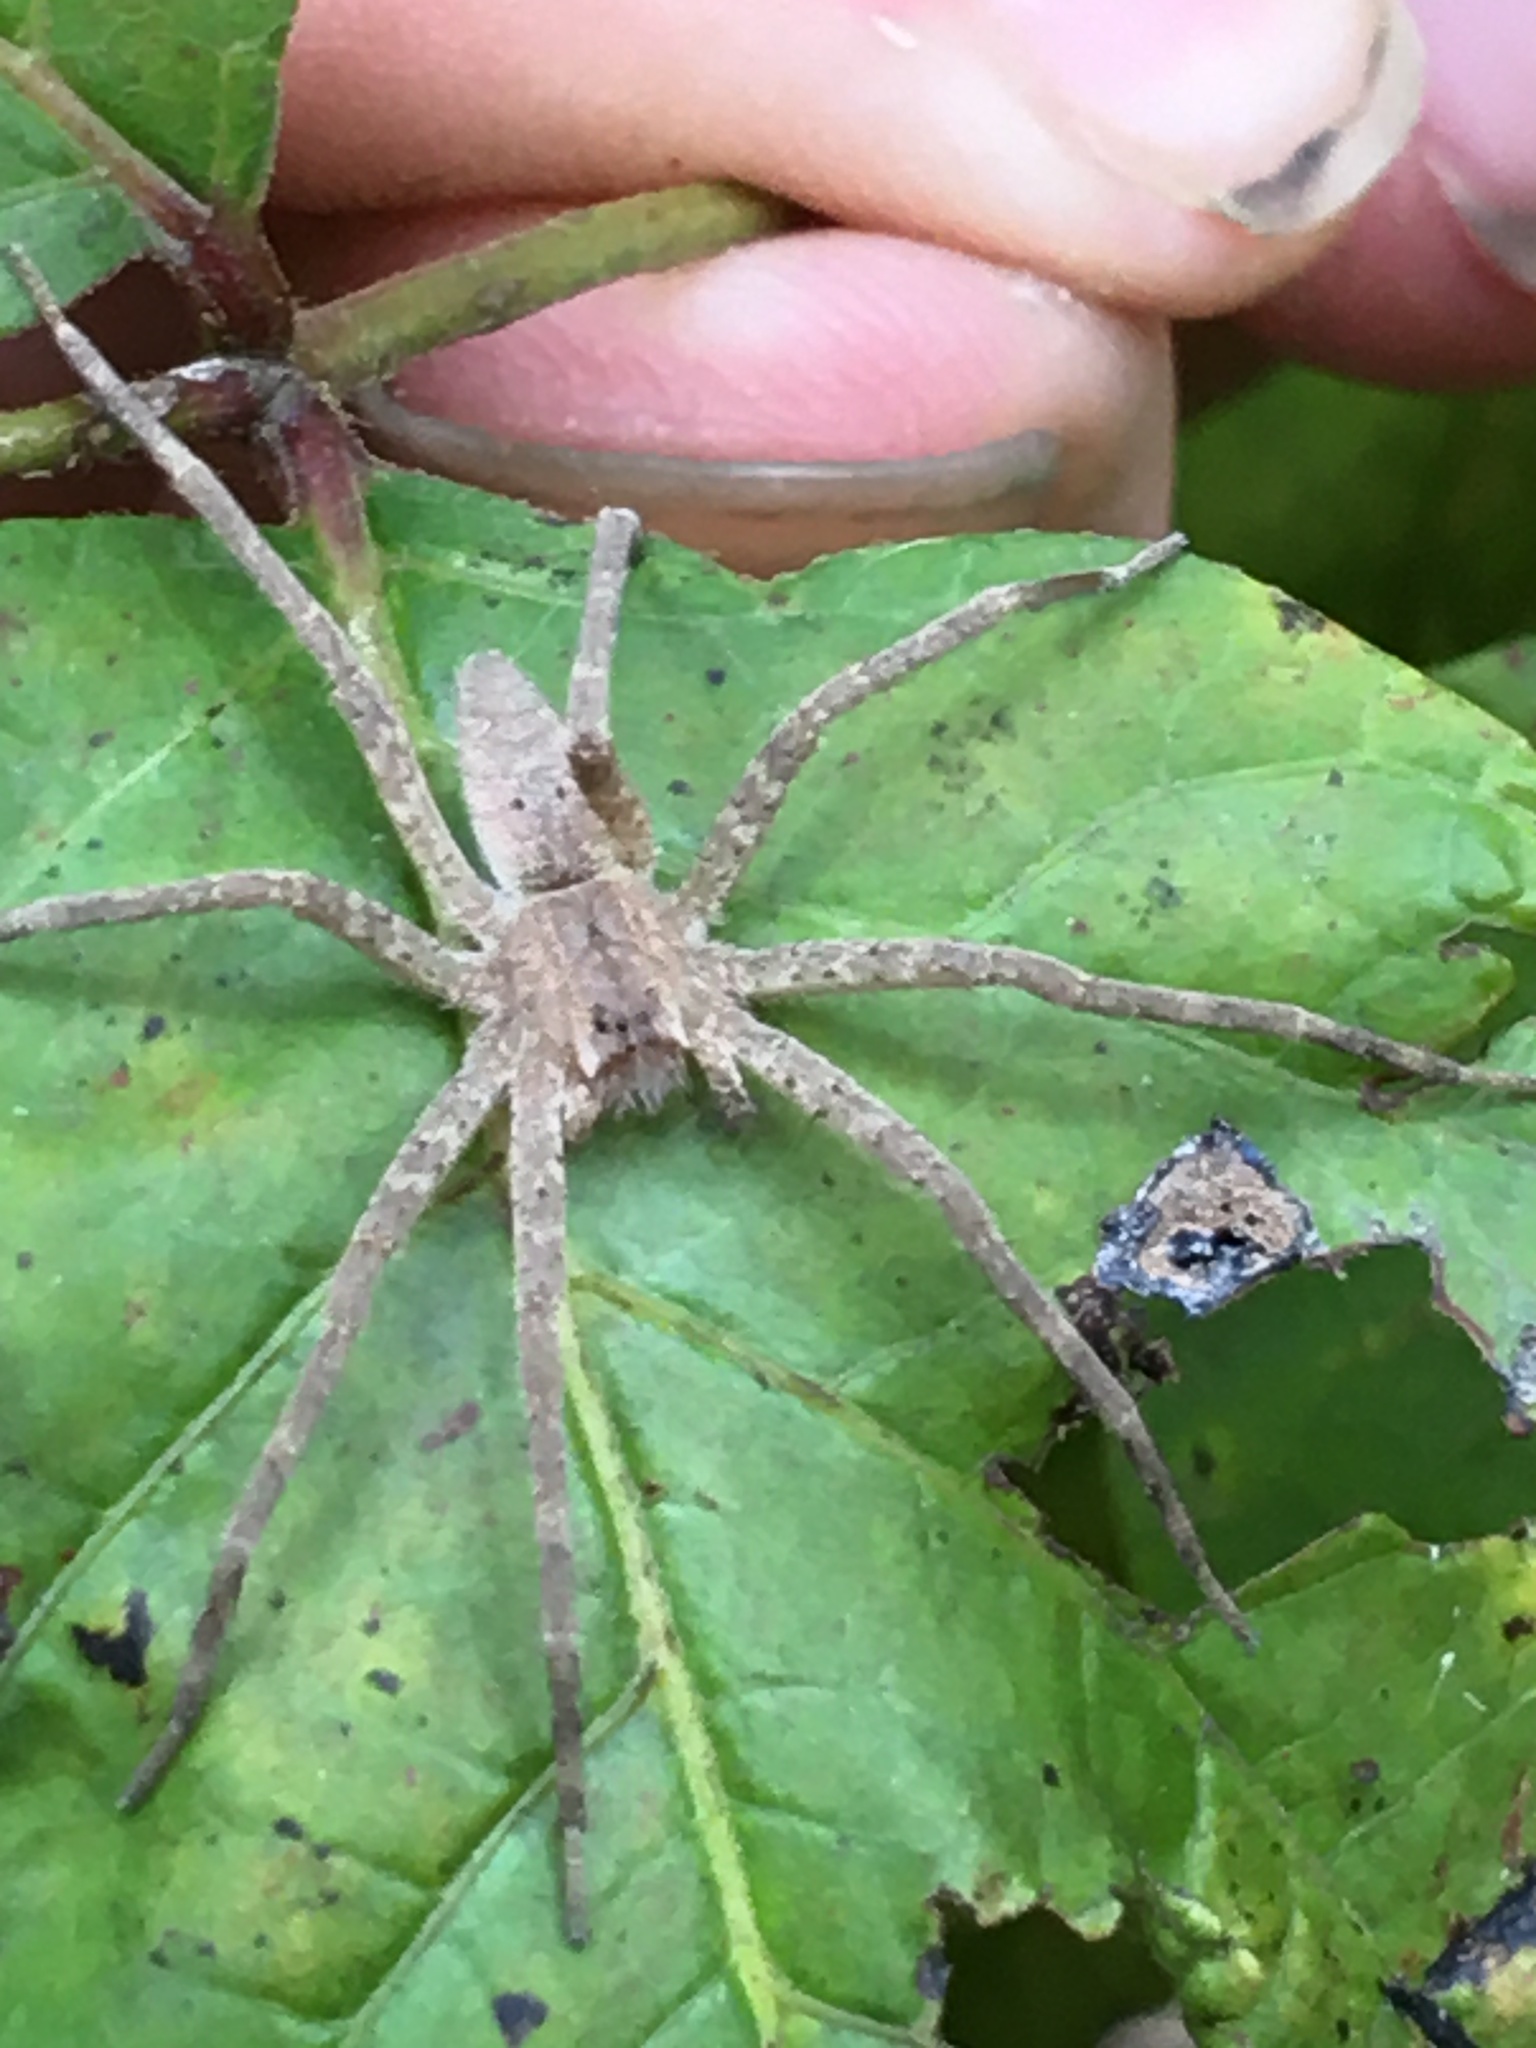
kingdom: Animalia
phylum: Arthropoda
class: Arachnida
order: Araneae
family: Pisauridae
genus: Pisaurina
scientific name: Pisaurina mira
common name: American nursery web spider
